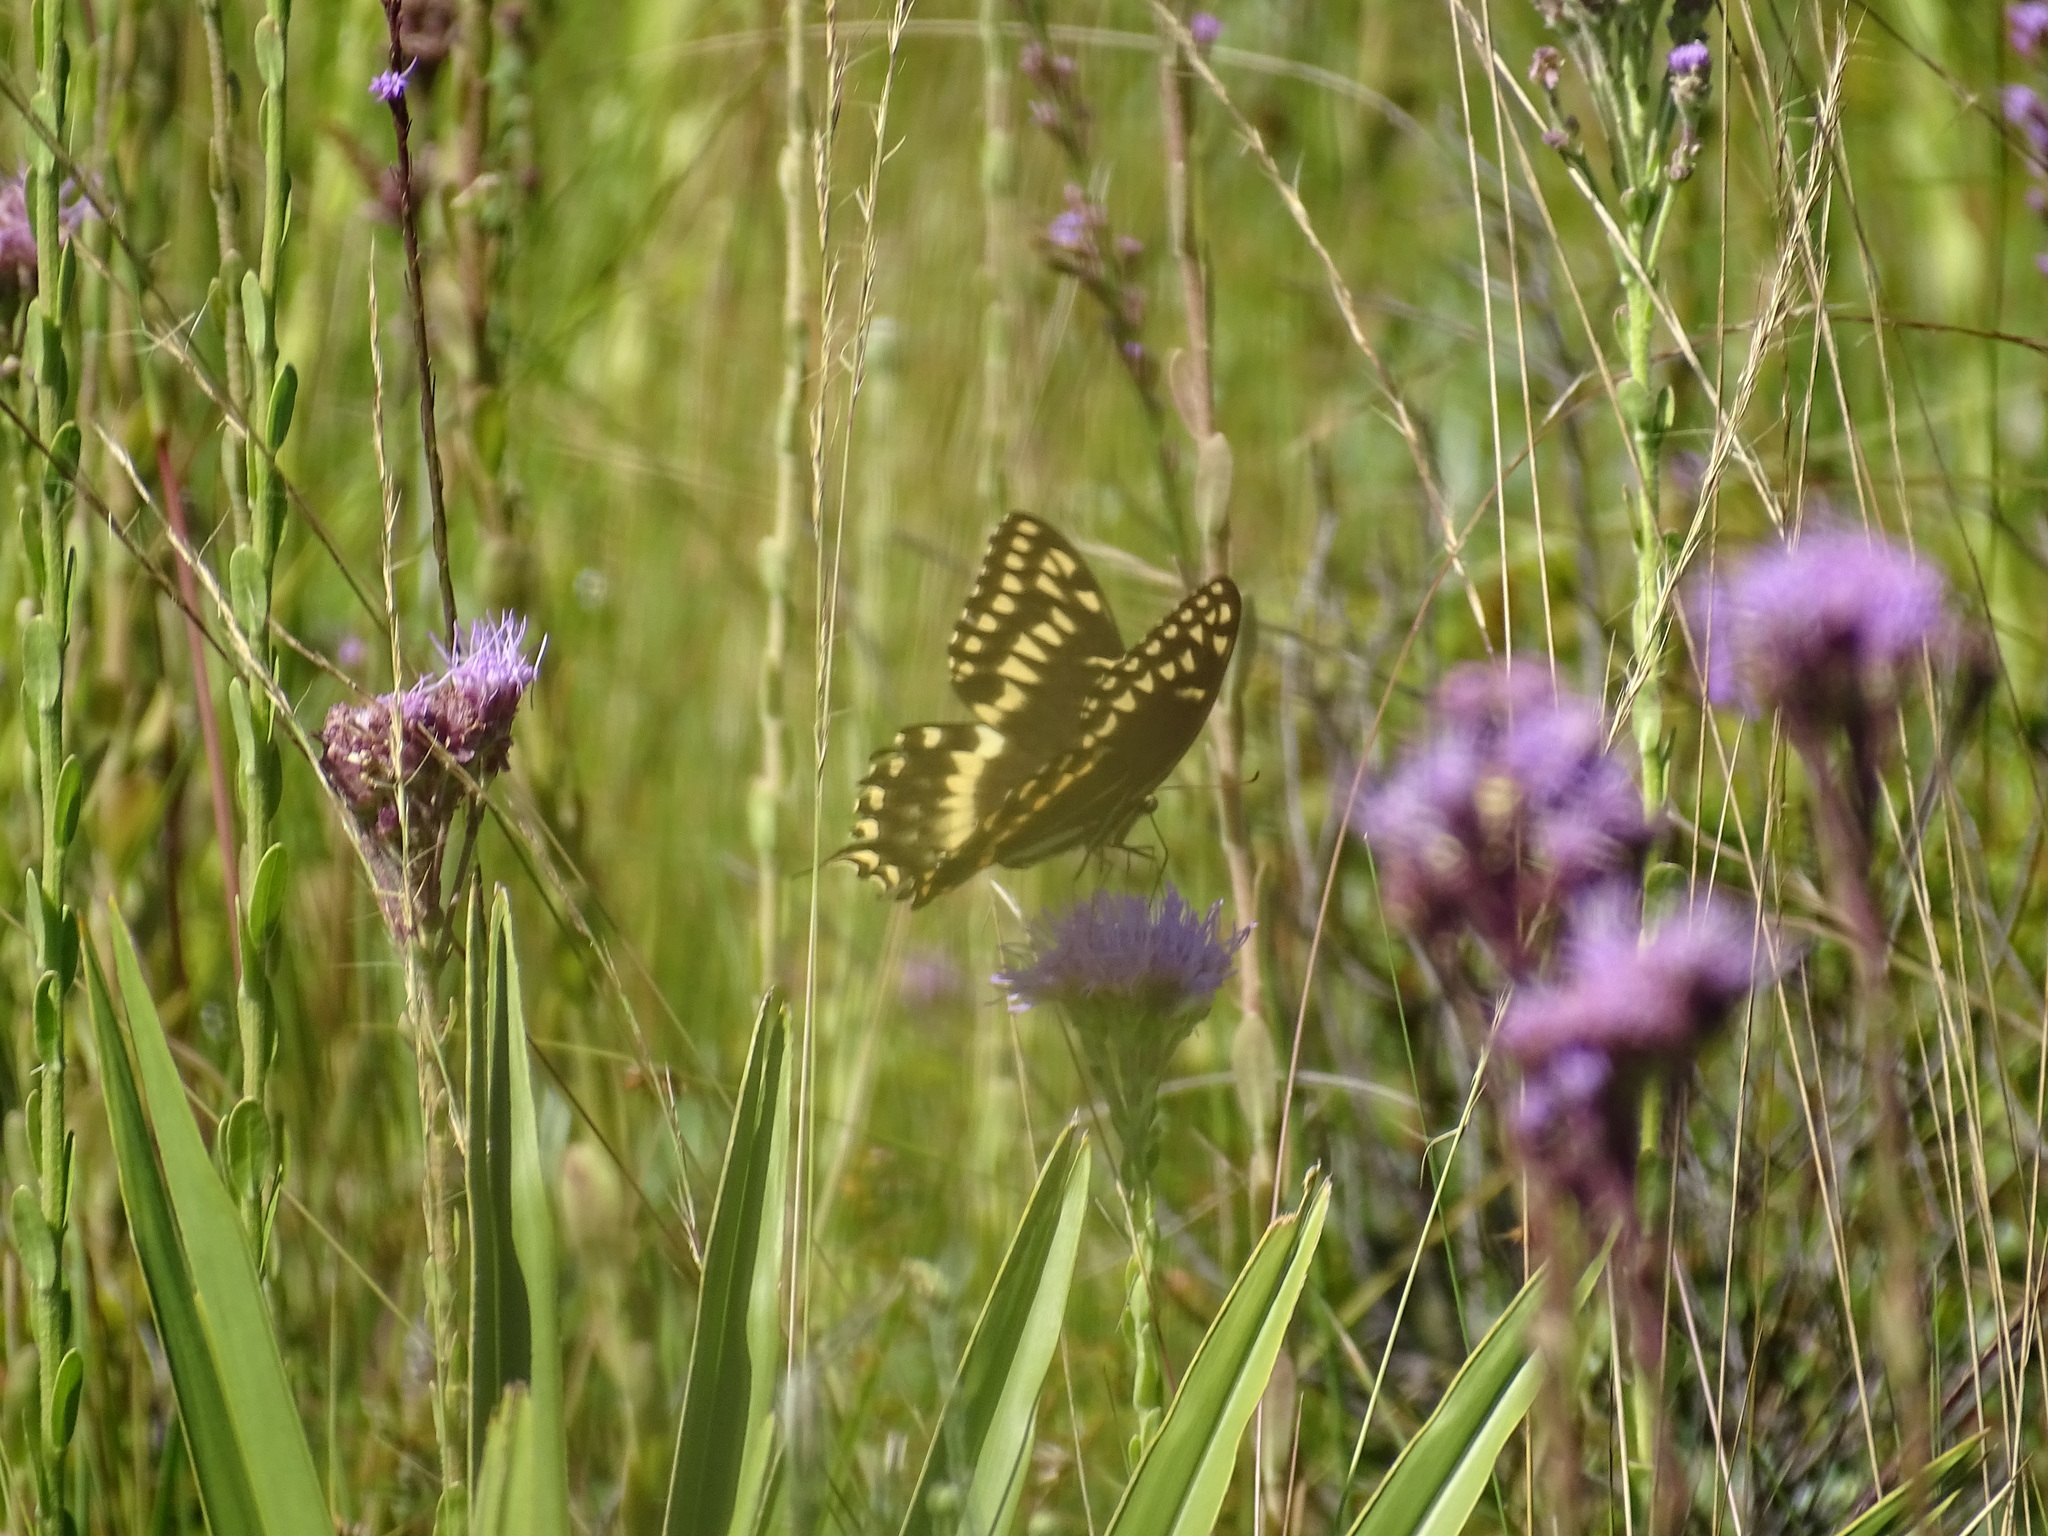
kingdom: Animalia
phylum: Arthropoda
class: Insecta
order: Lepidoptera
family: Papilionidae
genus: Papilio
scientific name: Papilio palamedes
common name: Palamedes swallowtail
